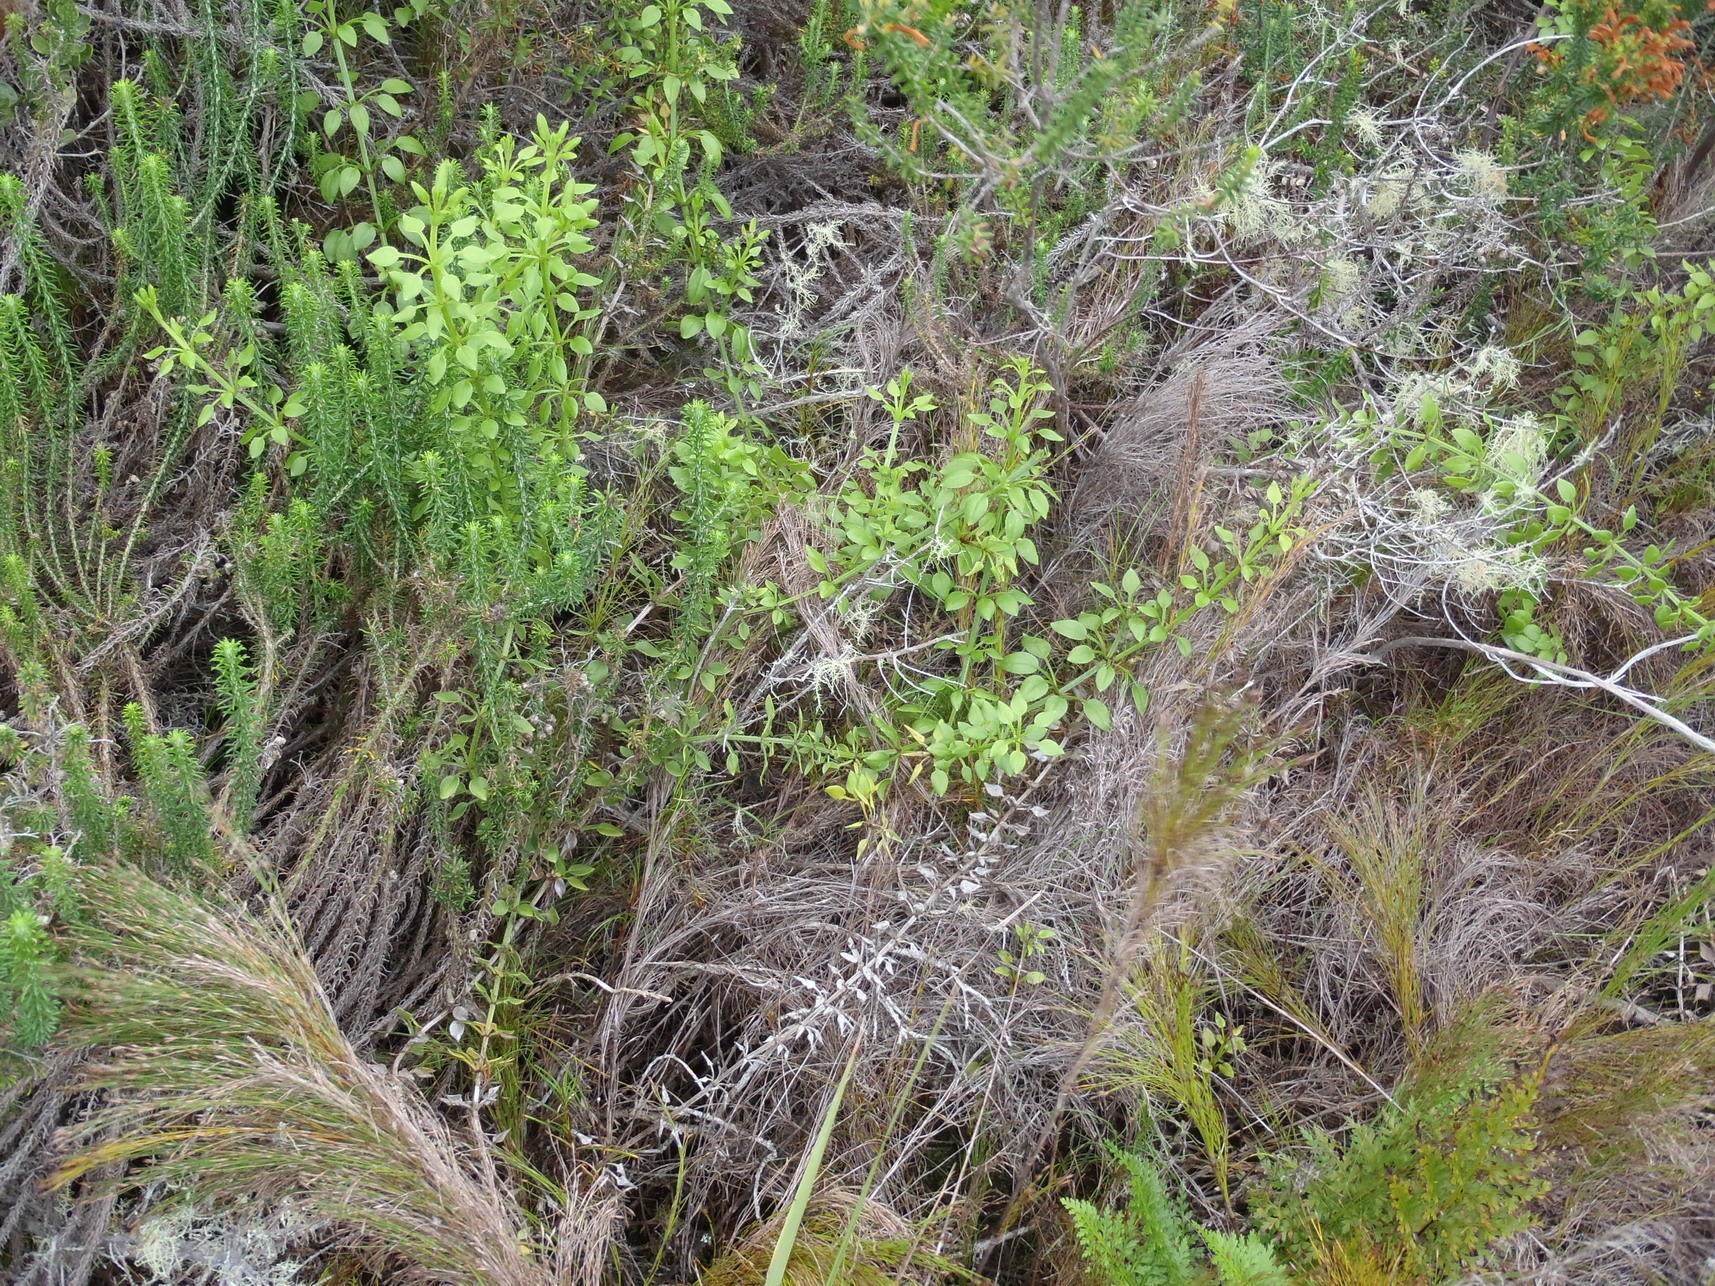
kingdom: Plantae
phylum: Tracheophyta
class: Magnoliopsida
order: Gentianales
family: Rubiaceae
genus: Rubia
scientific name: Rubia petiolaris
